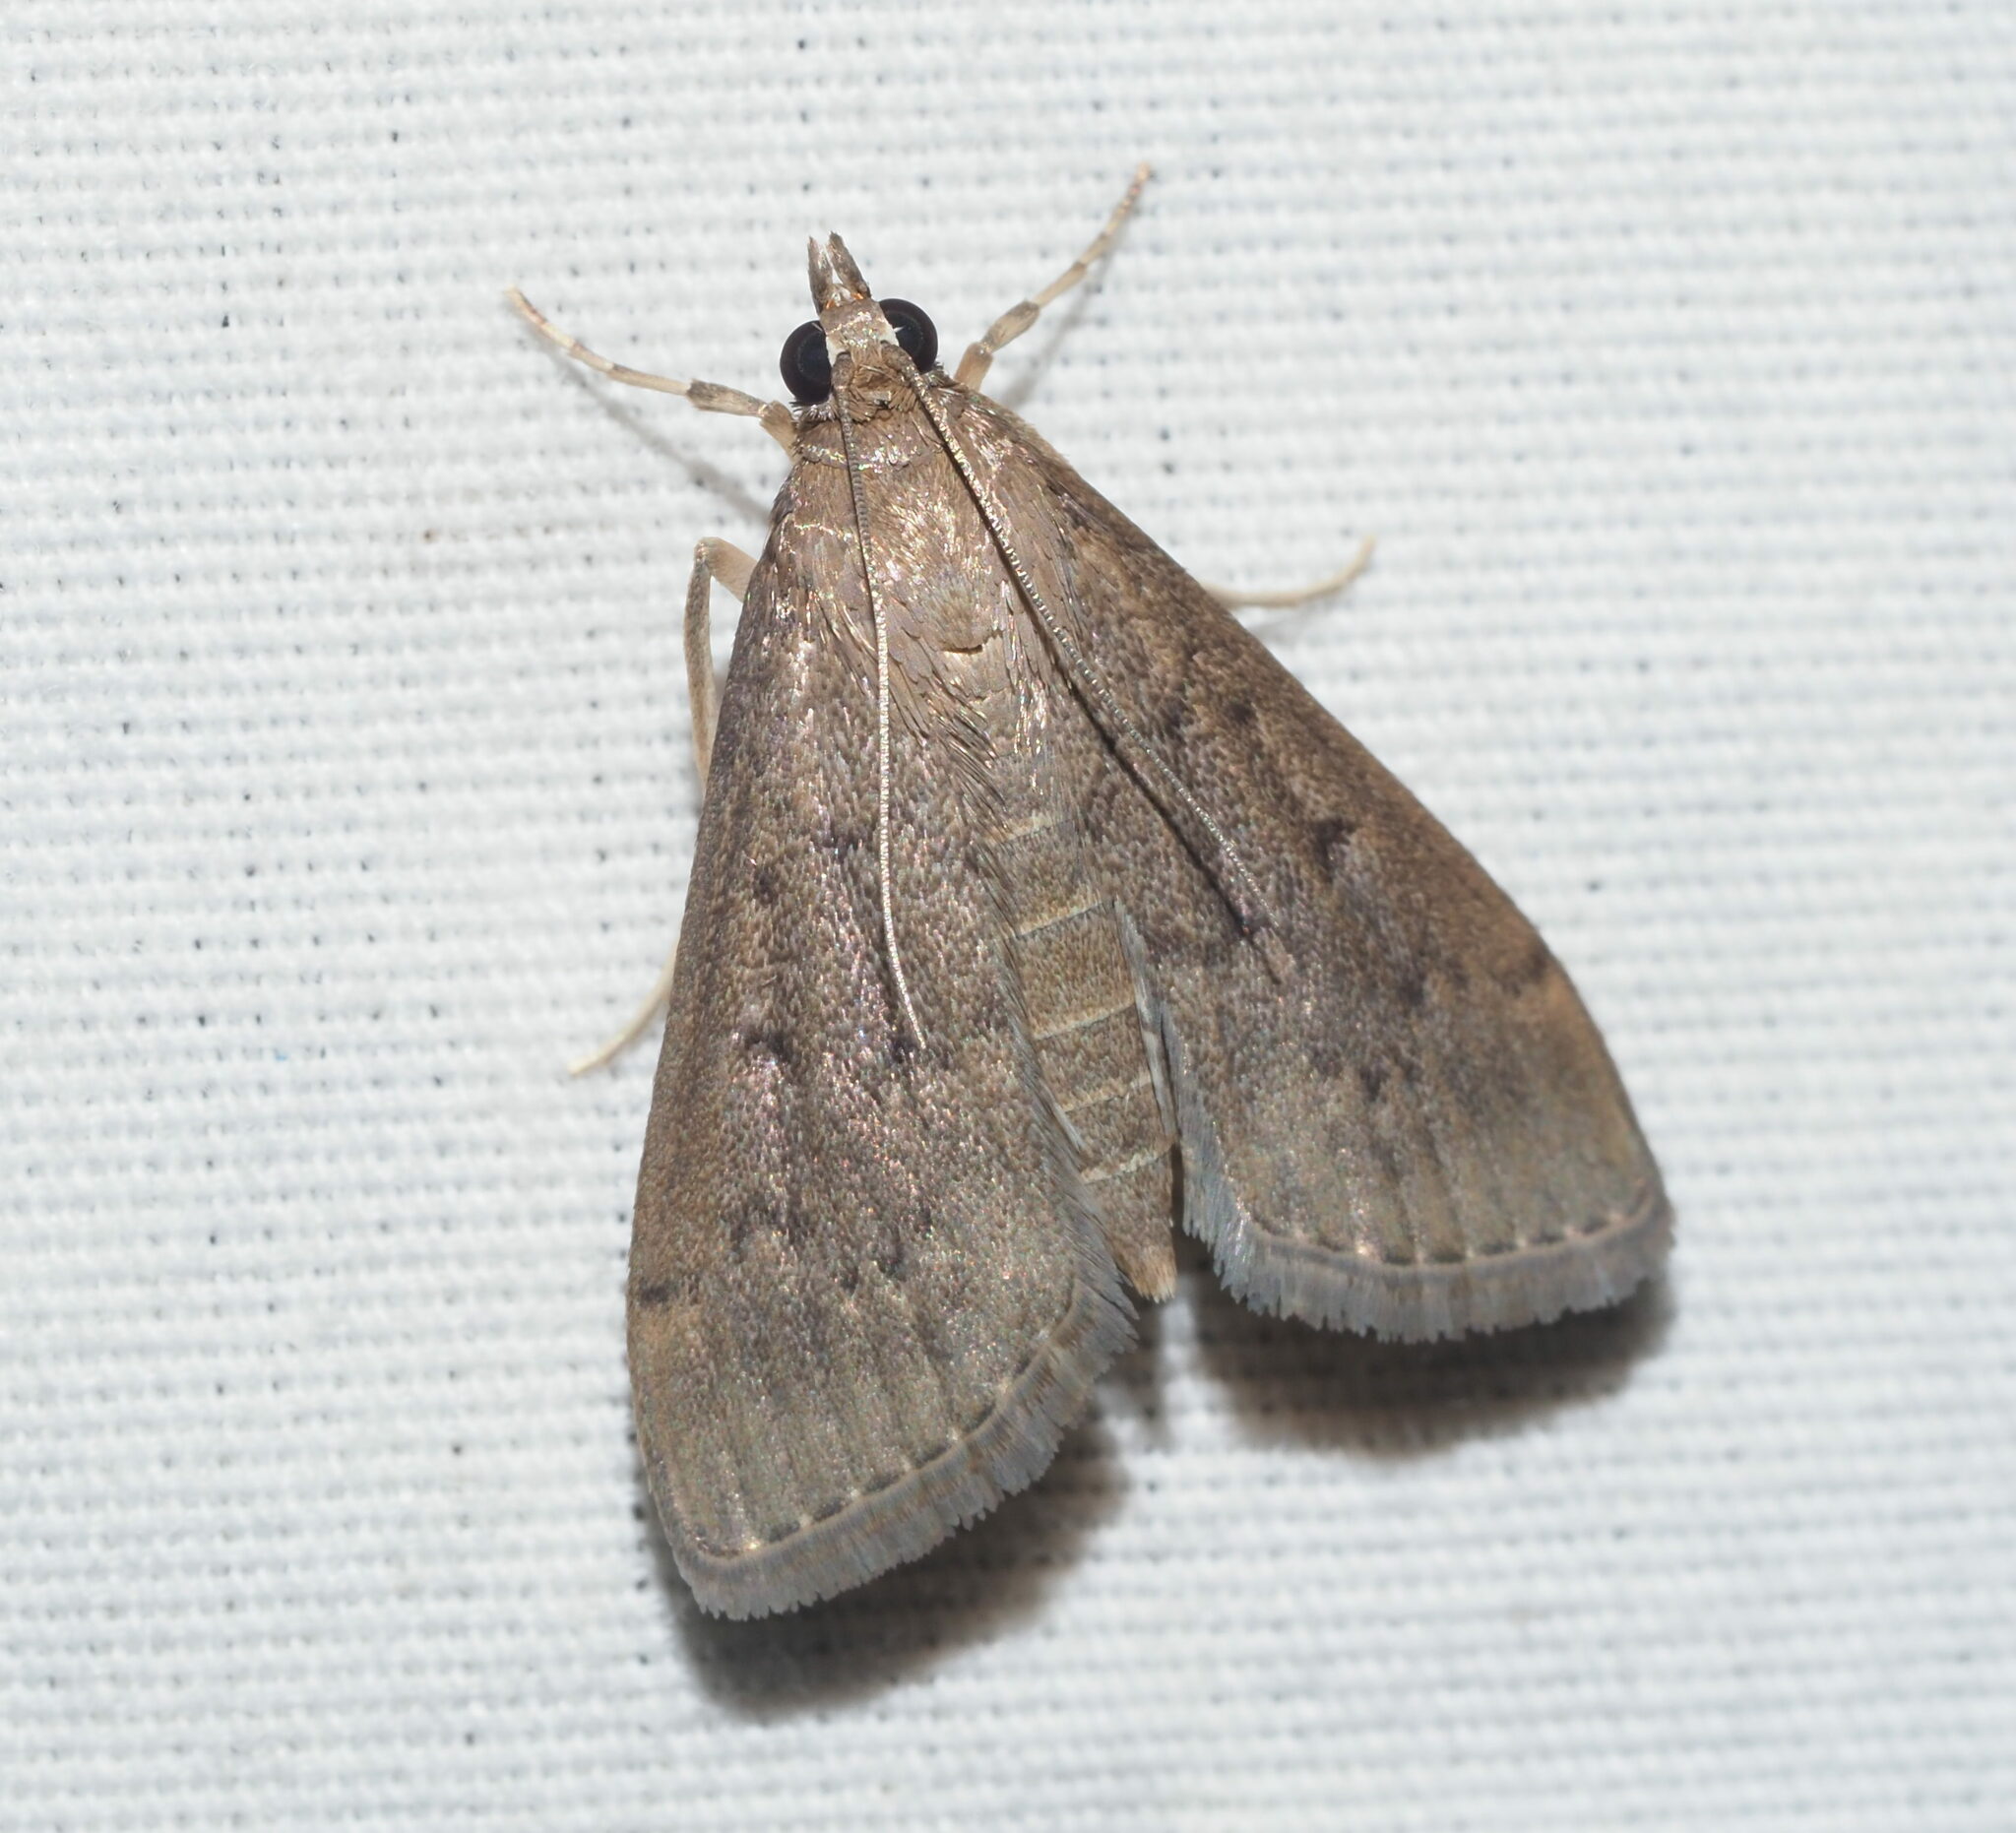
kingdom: Animalia
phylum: Arthropoda
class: Insecta
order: Lepidoptera
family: Crambidae
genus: Herpetogramma
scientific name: Herpetogramma licarsisalis
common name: Grass webworm
